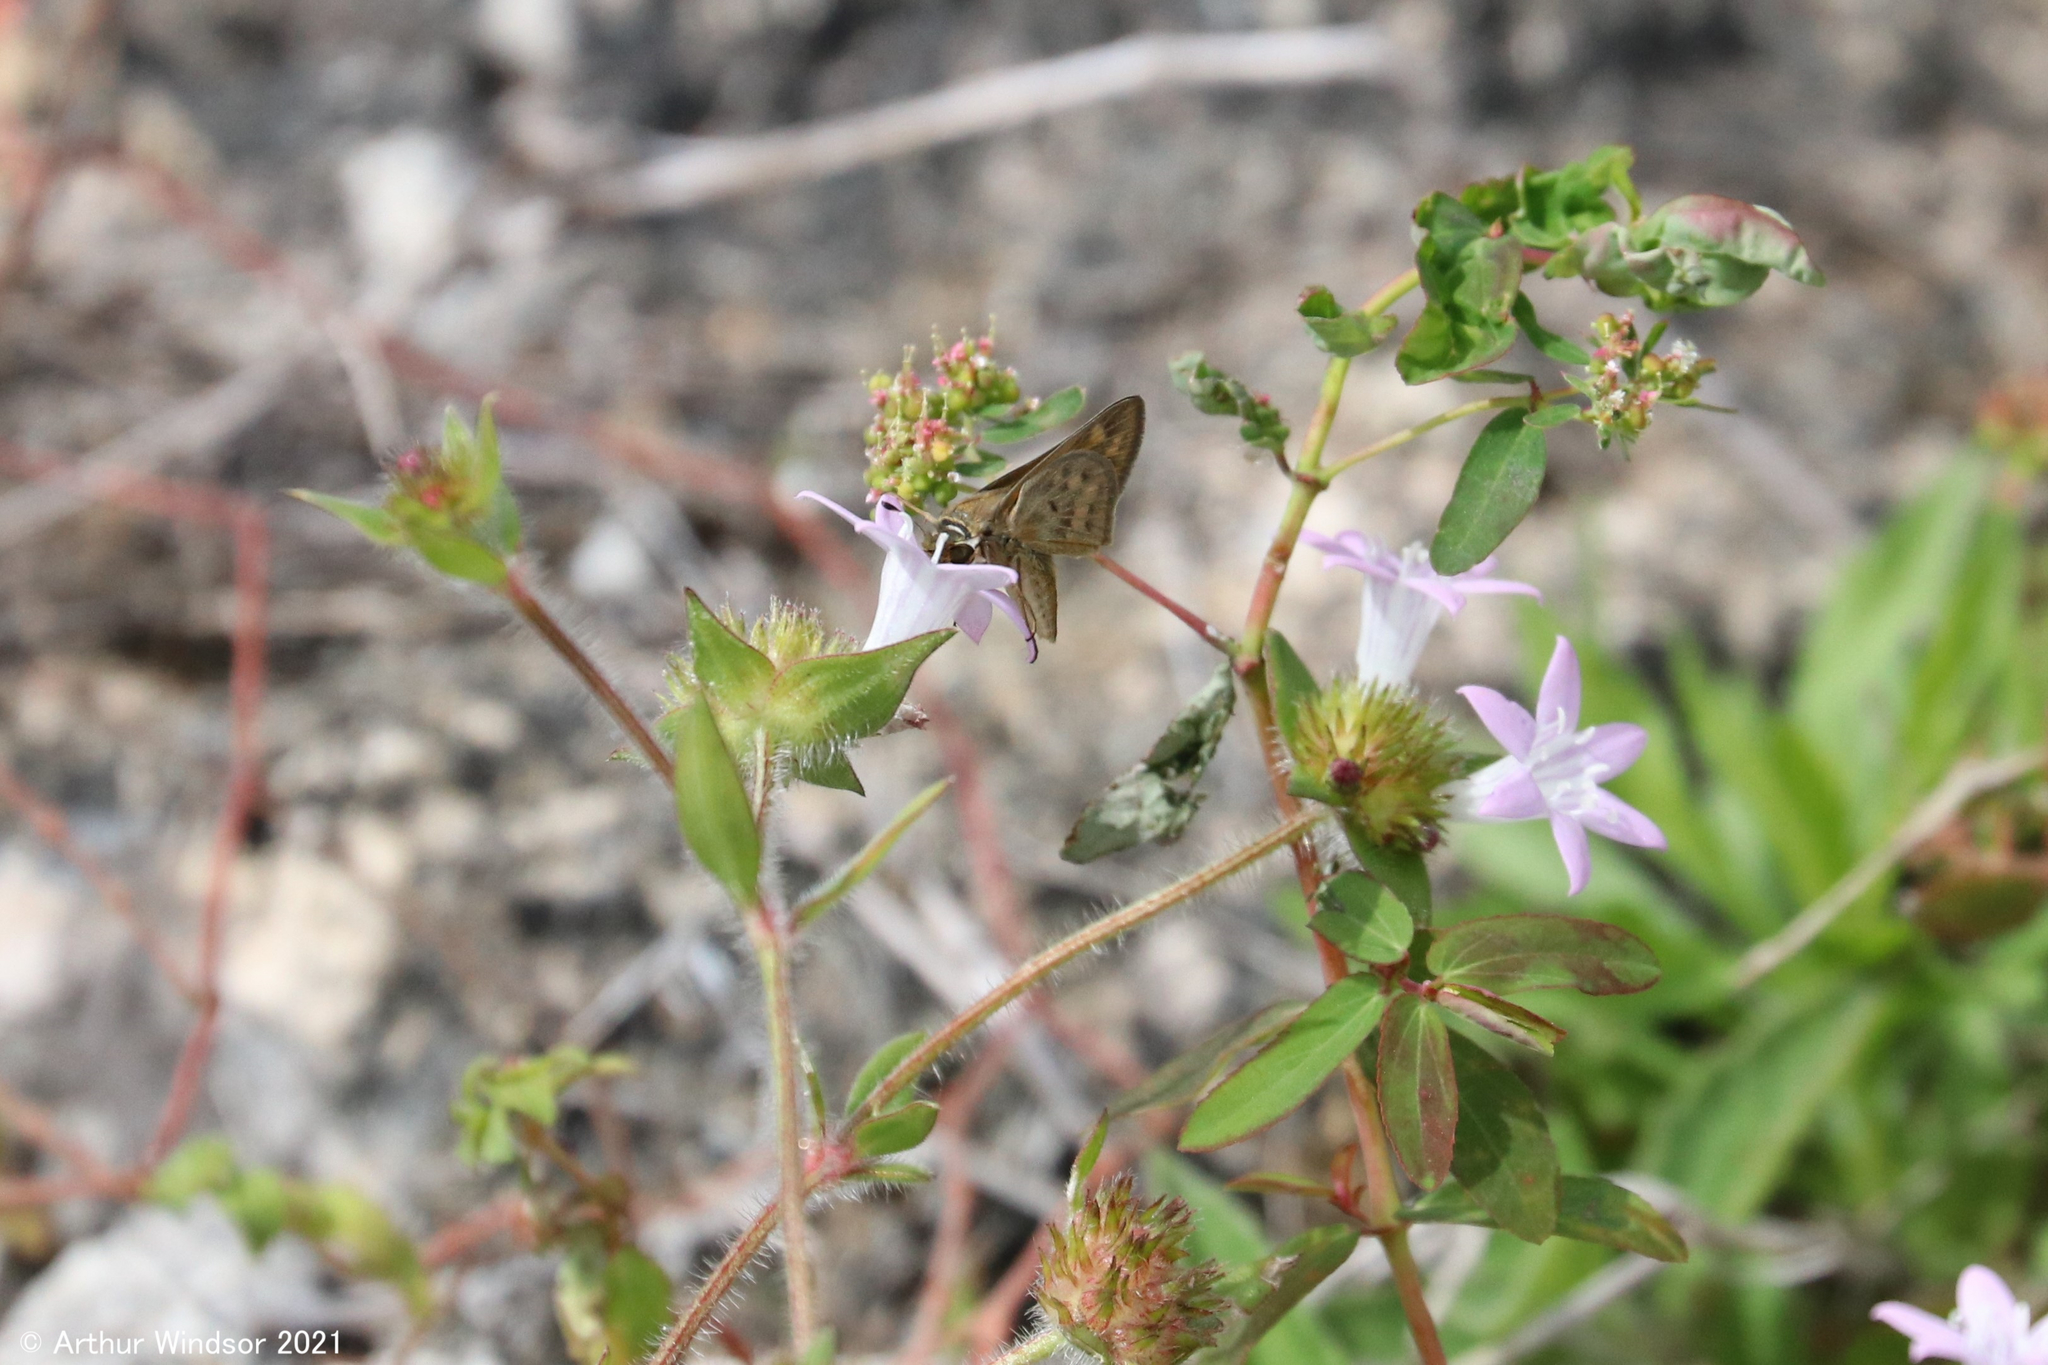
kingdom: Animalia
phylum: Arthropoda
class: Insecta
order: Lepidoptera
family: Hesperiidae
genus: Hylephila
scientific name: Hylephila phyleus
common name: Fiery skipper
